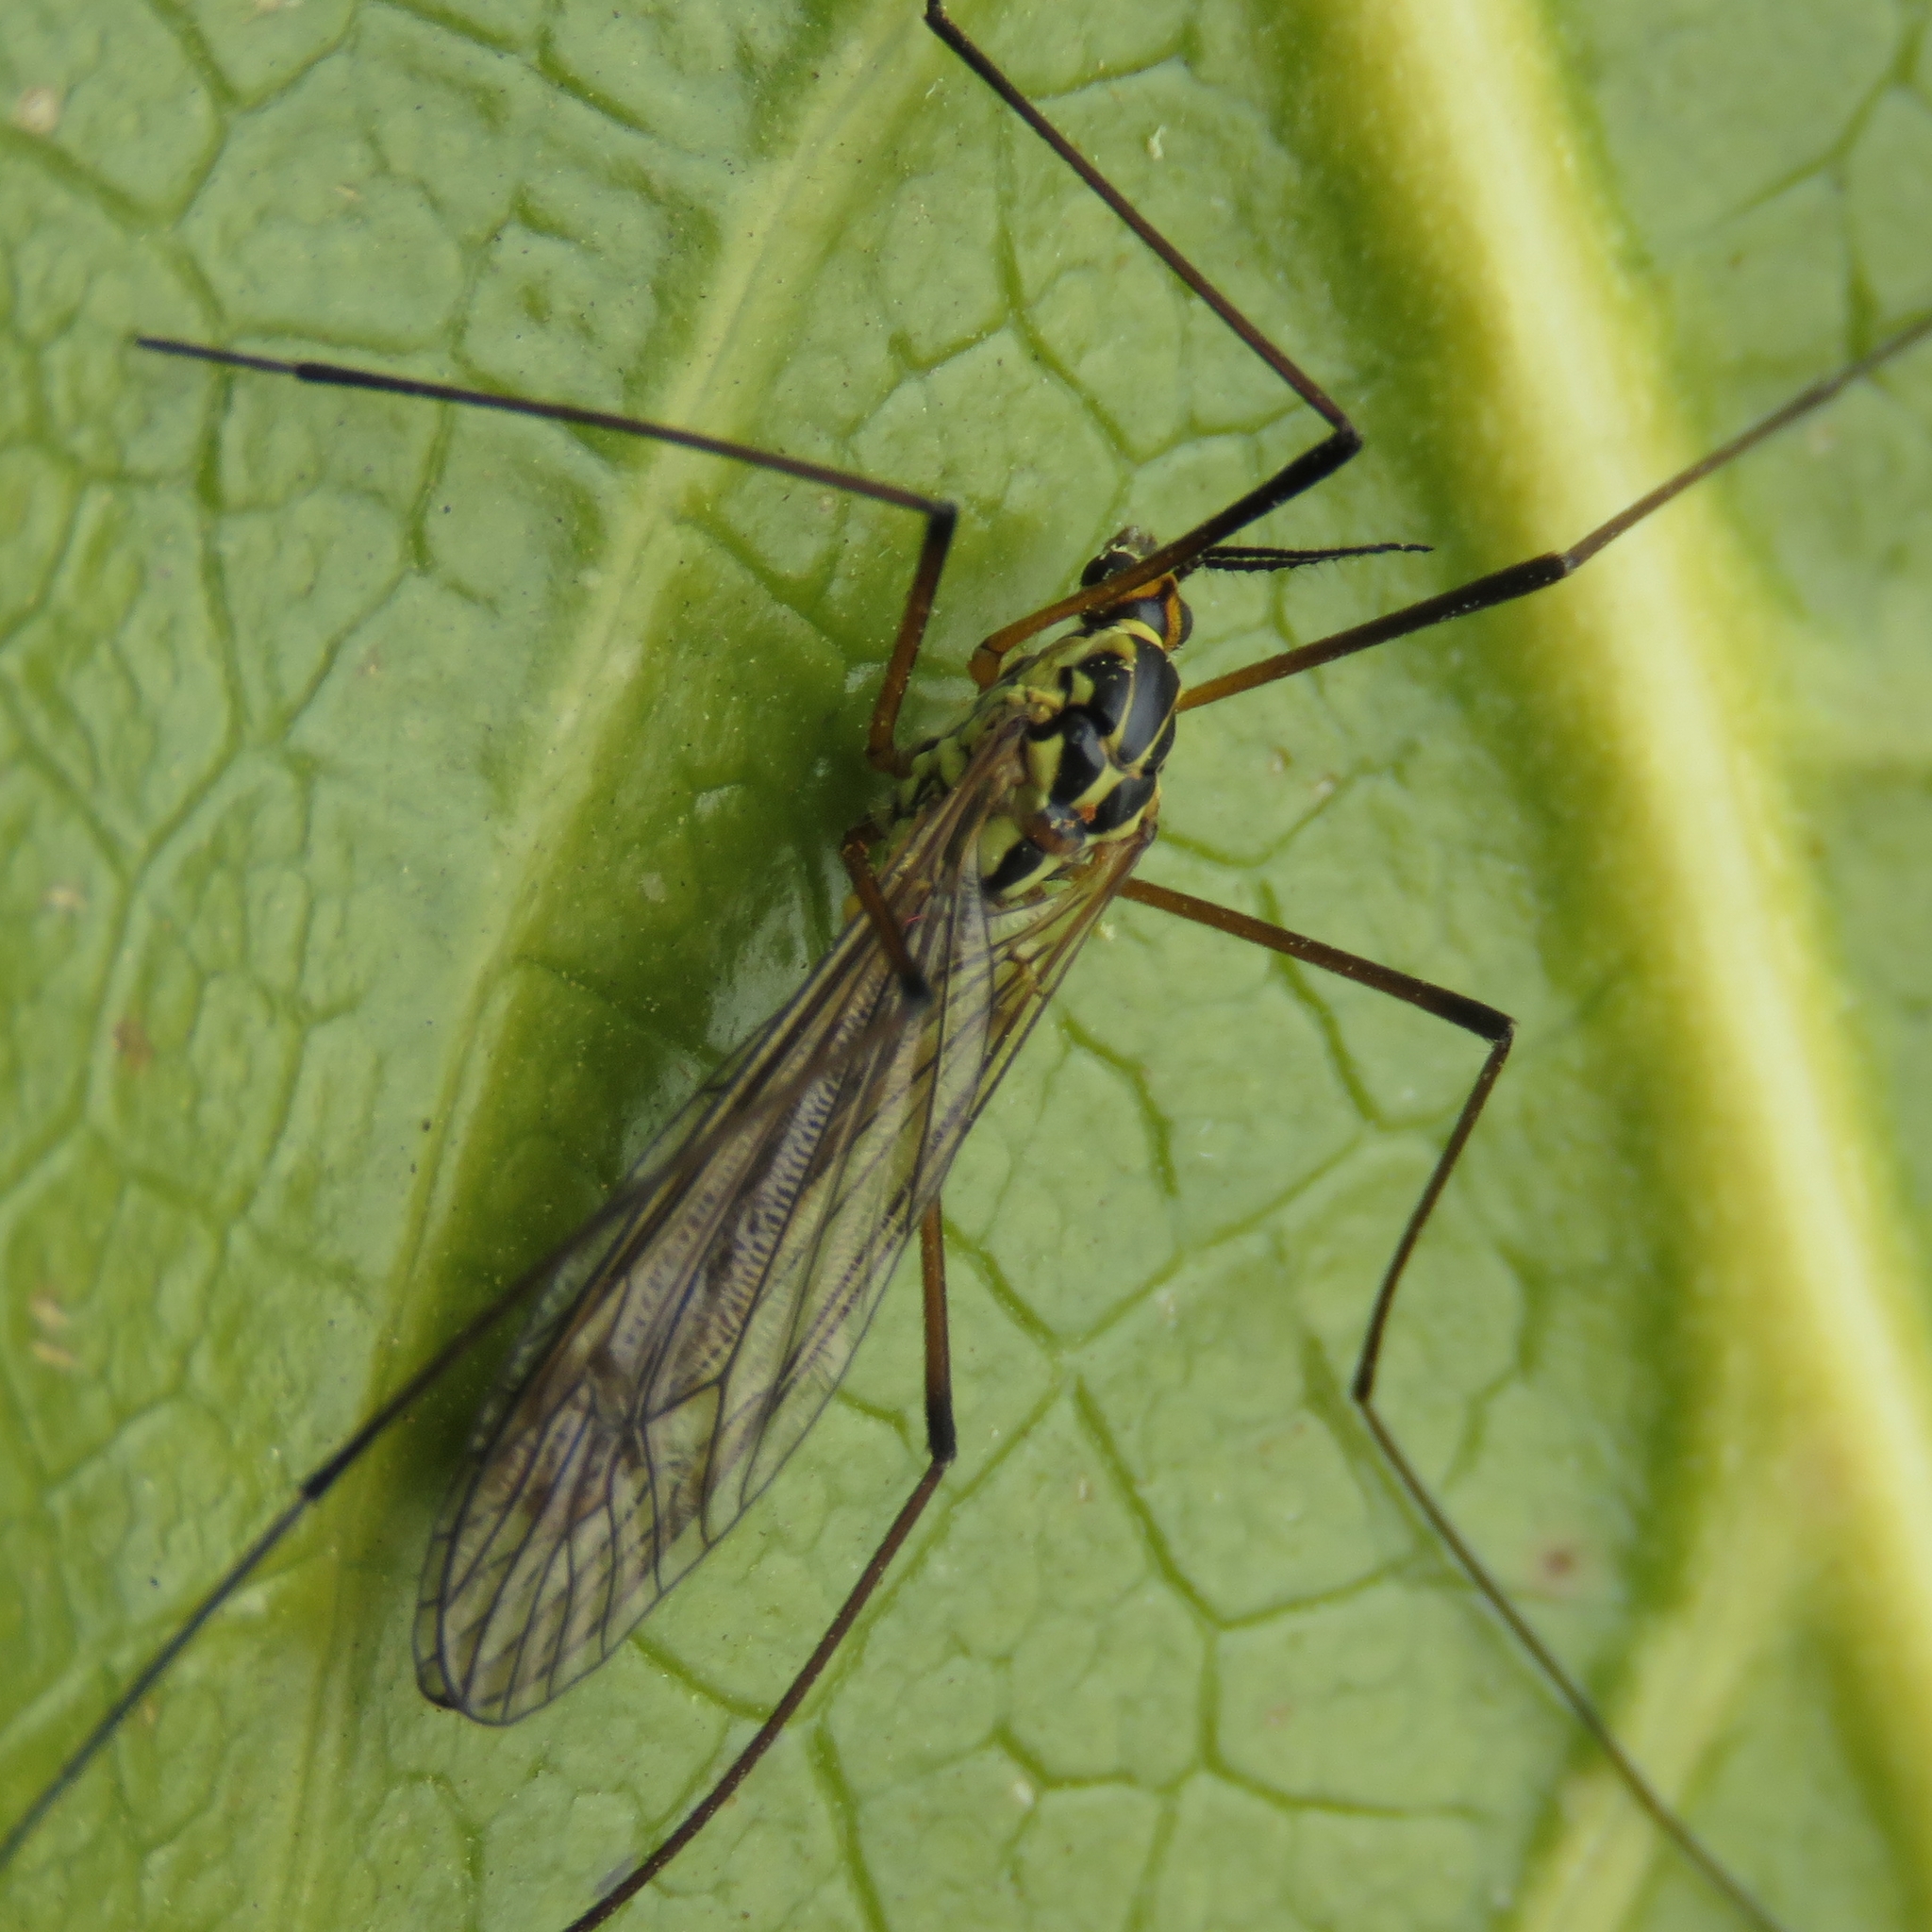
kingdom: Animalia
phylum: Arthropoda
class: Insecta
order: Diptera
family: Tipulidae
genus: Nephrotoma
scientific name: Nephrotoma appendiculata
